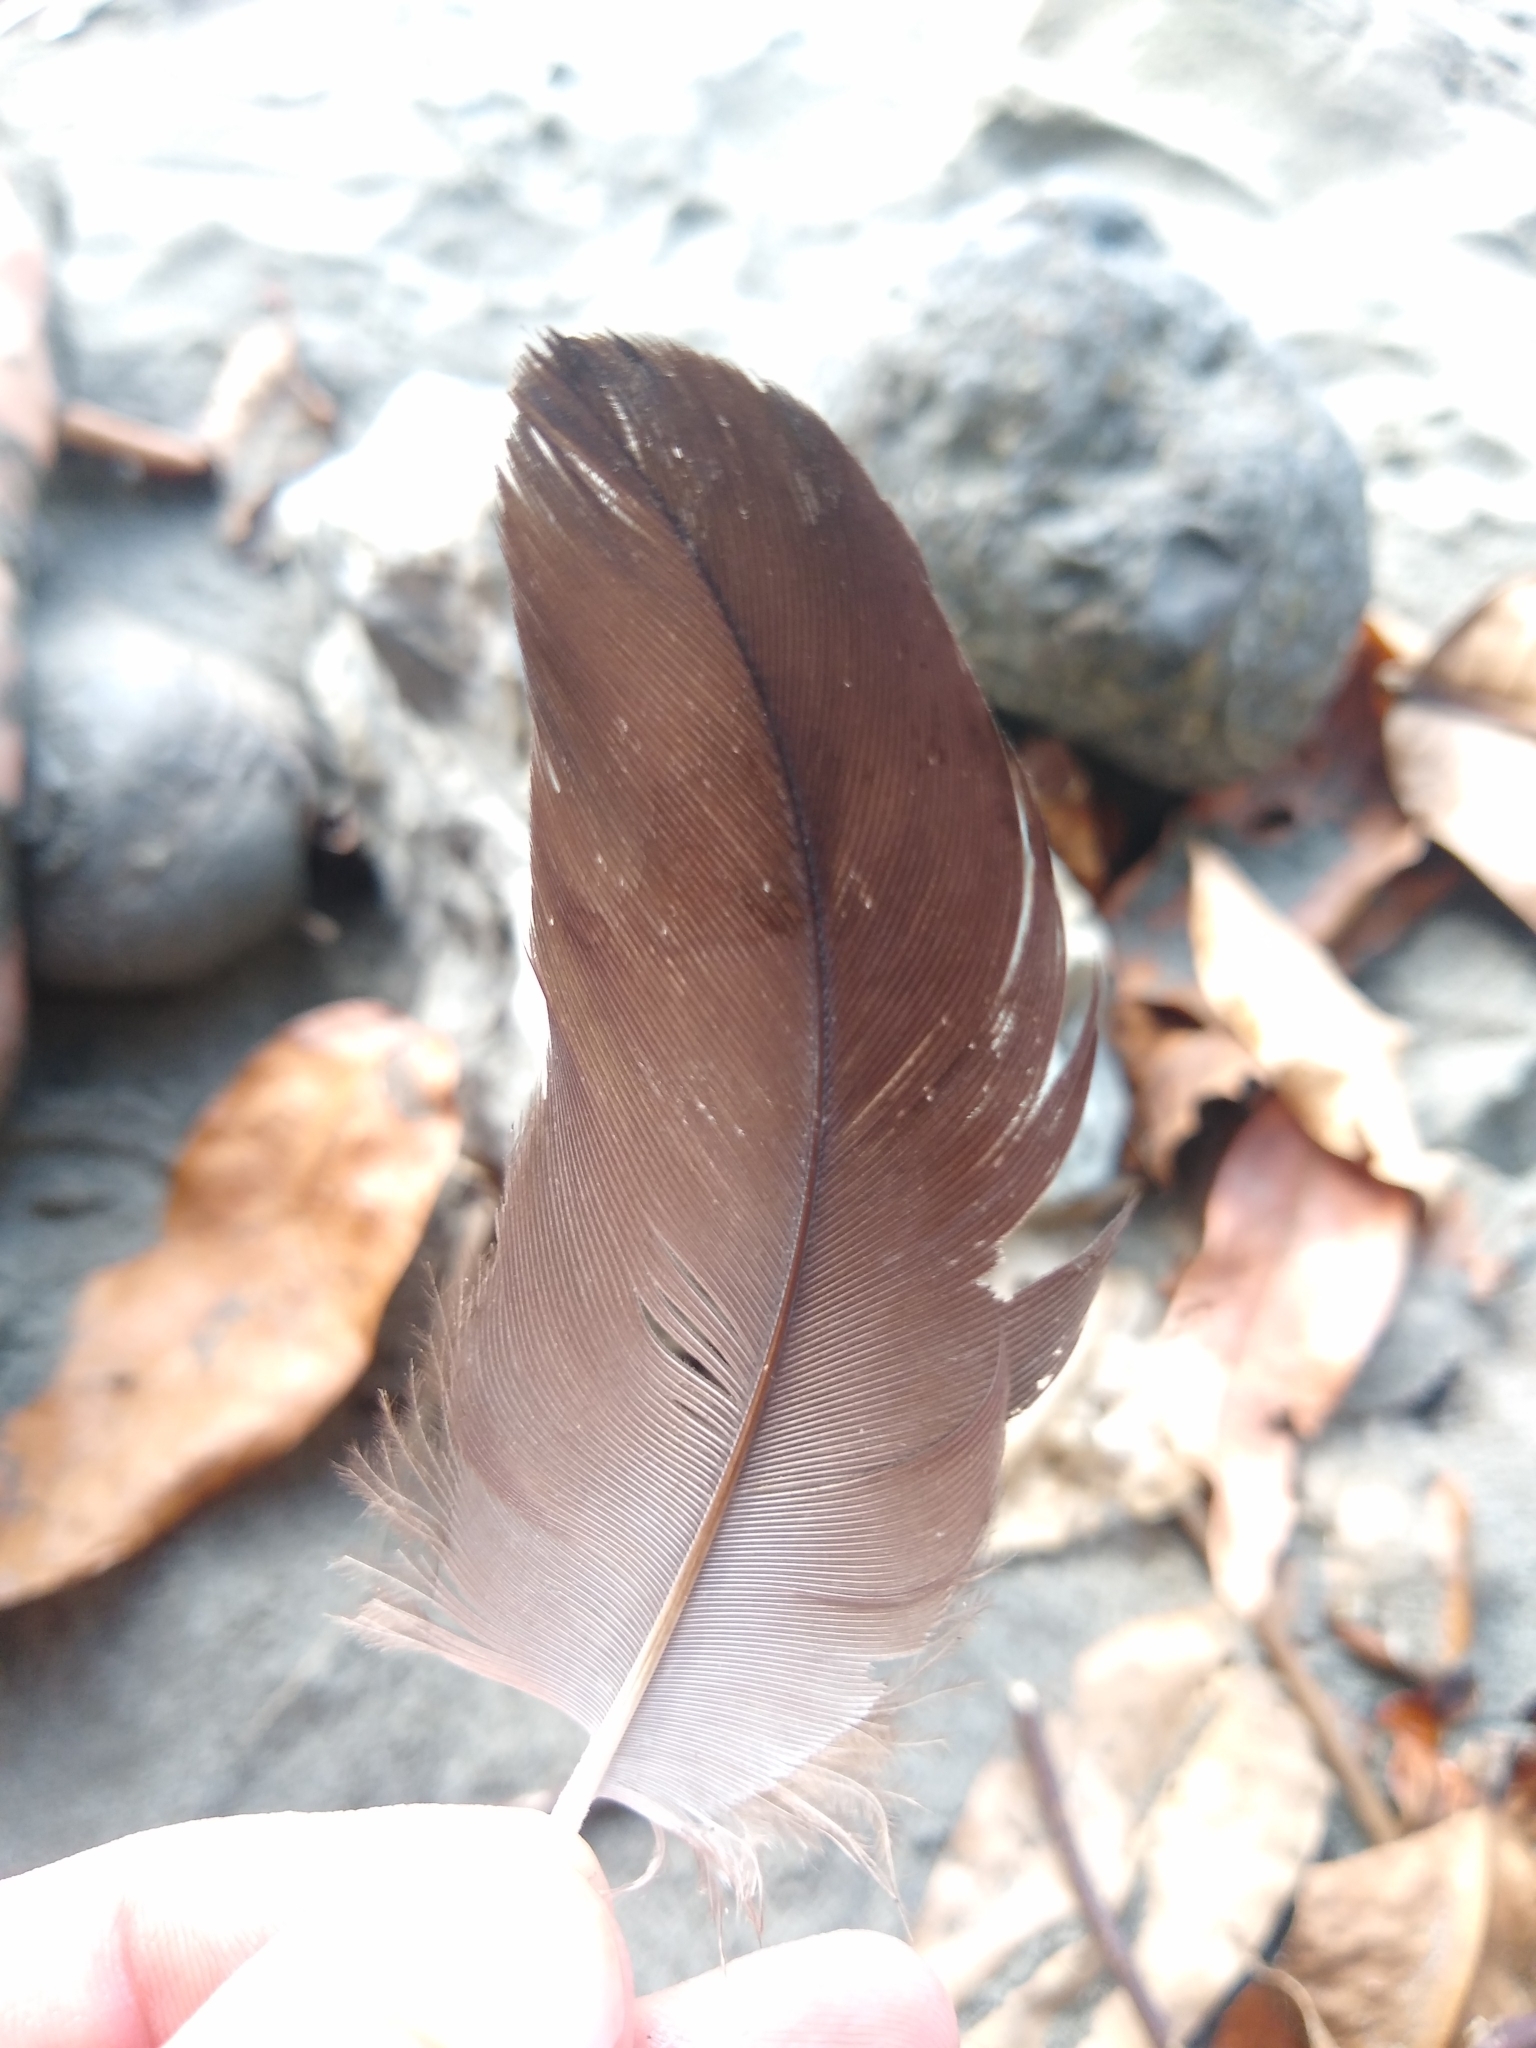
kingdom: Animalia
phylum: Chordata
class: Aves
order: Accipitriformes
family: Cathartidae
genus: Coragyps
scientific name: Coragyps atratus
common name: Black vulture
